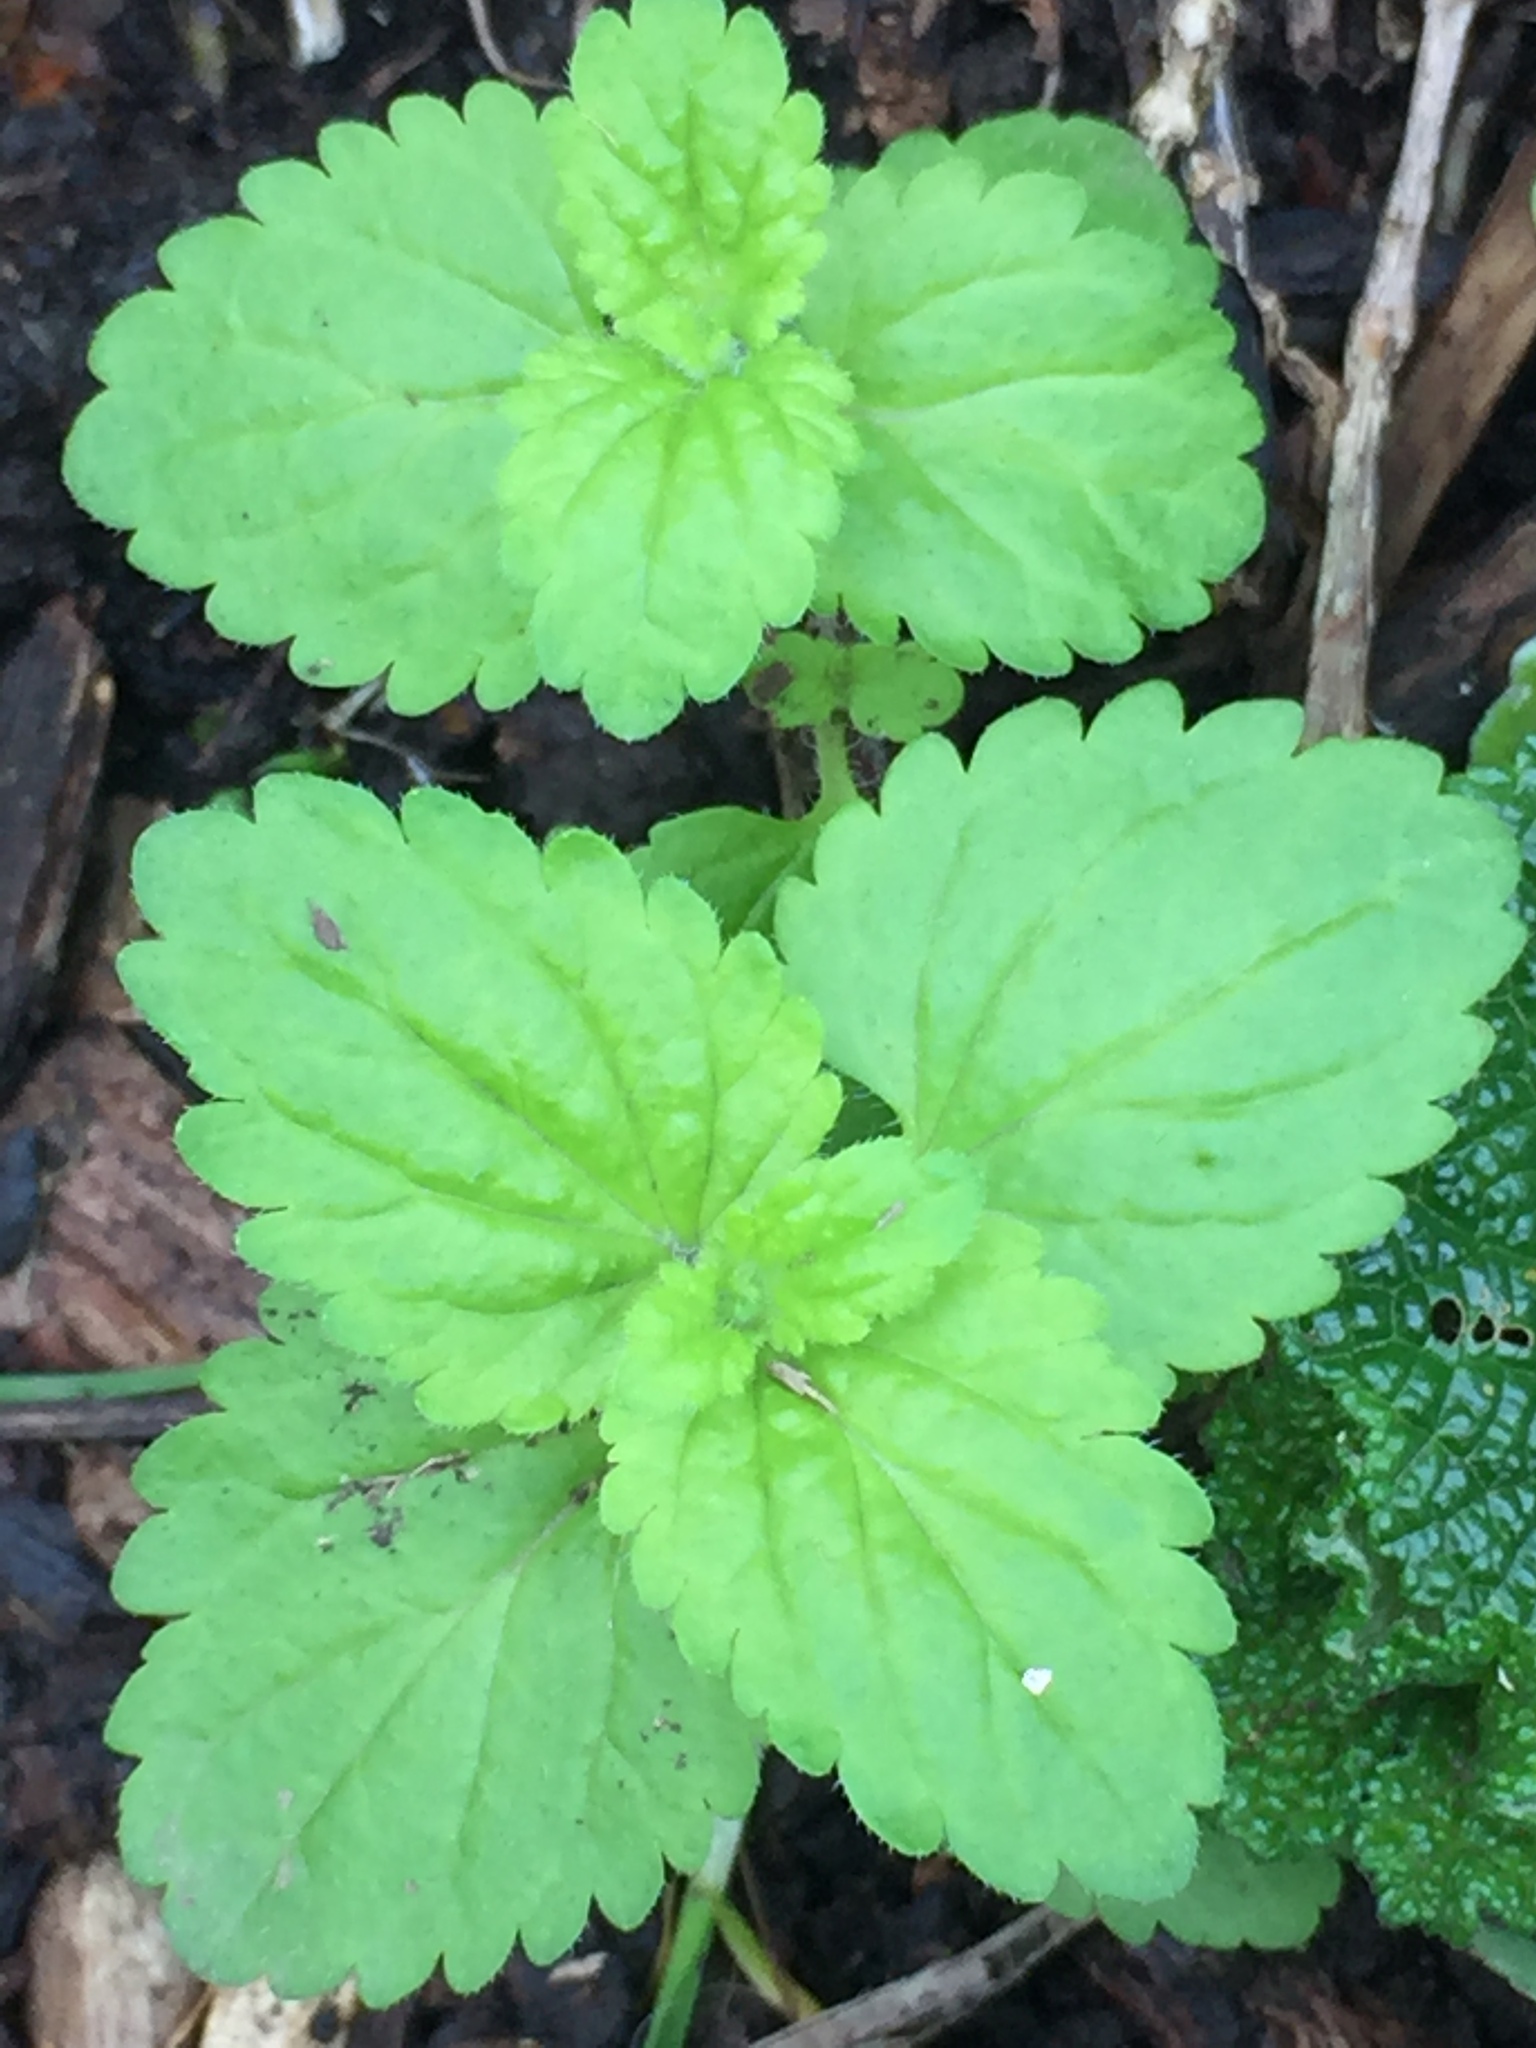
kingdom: Plantae
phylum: Tracheophyta
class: Magnoliopsida
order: Lamiales
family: Plantaginaceae
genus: Veronica
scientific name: Veronica javanica
